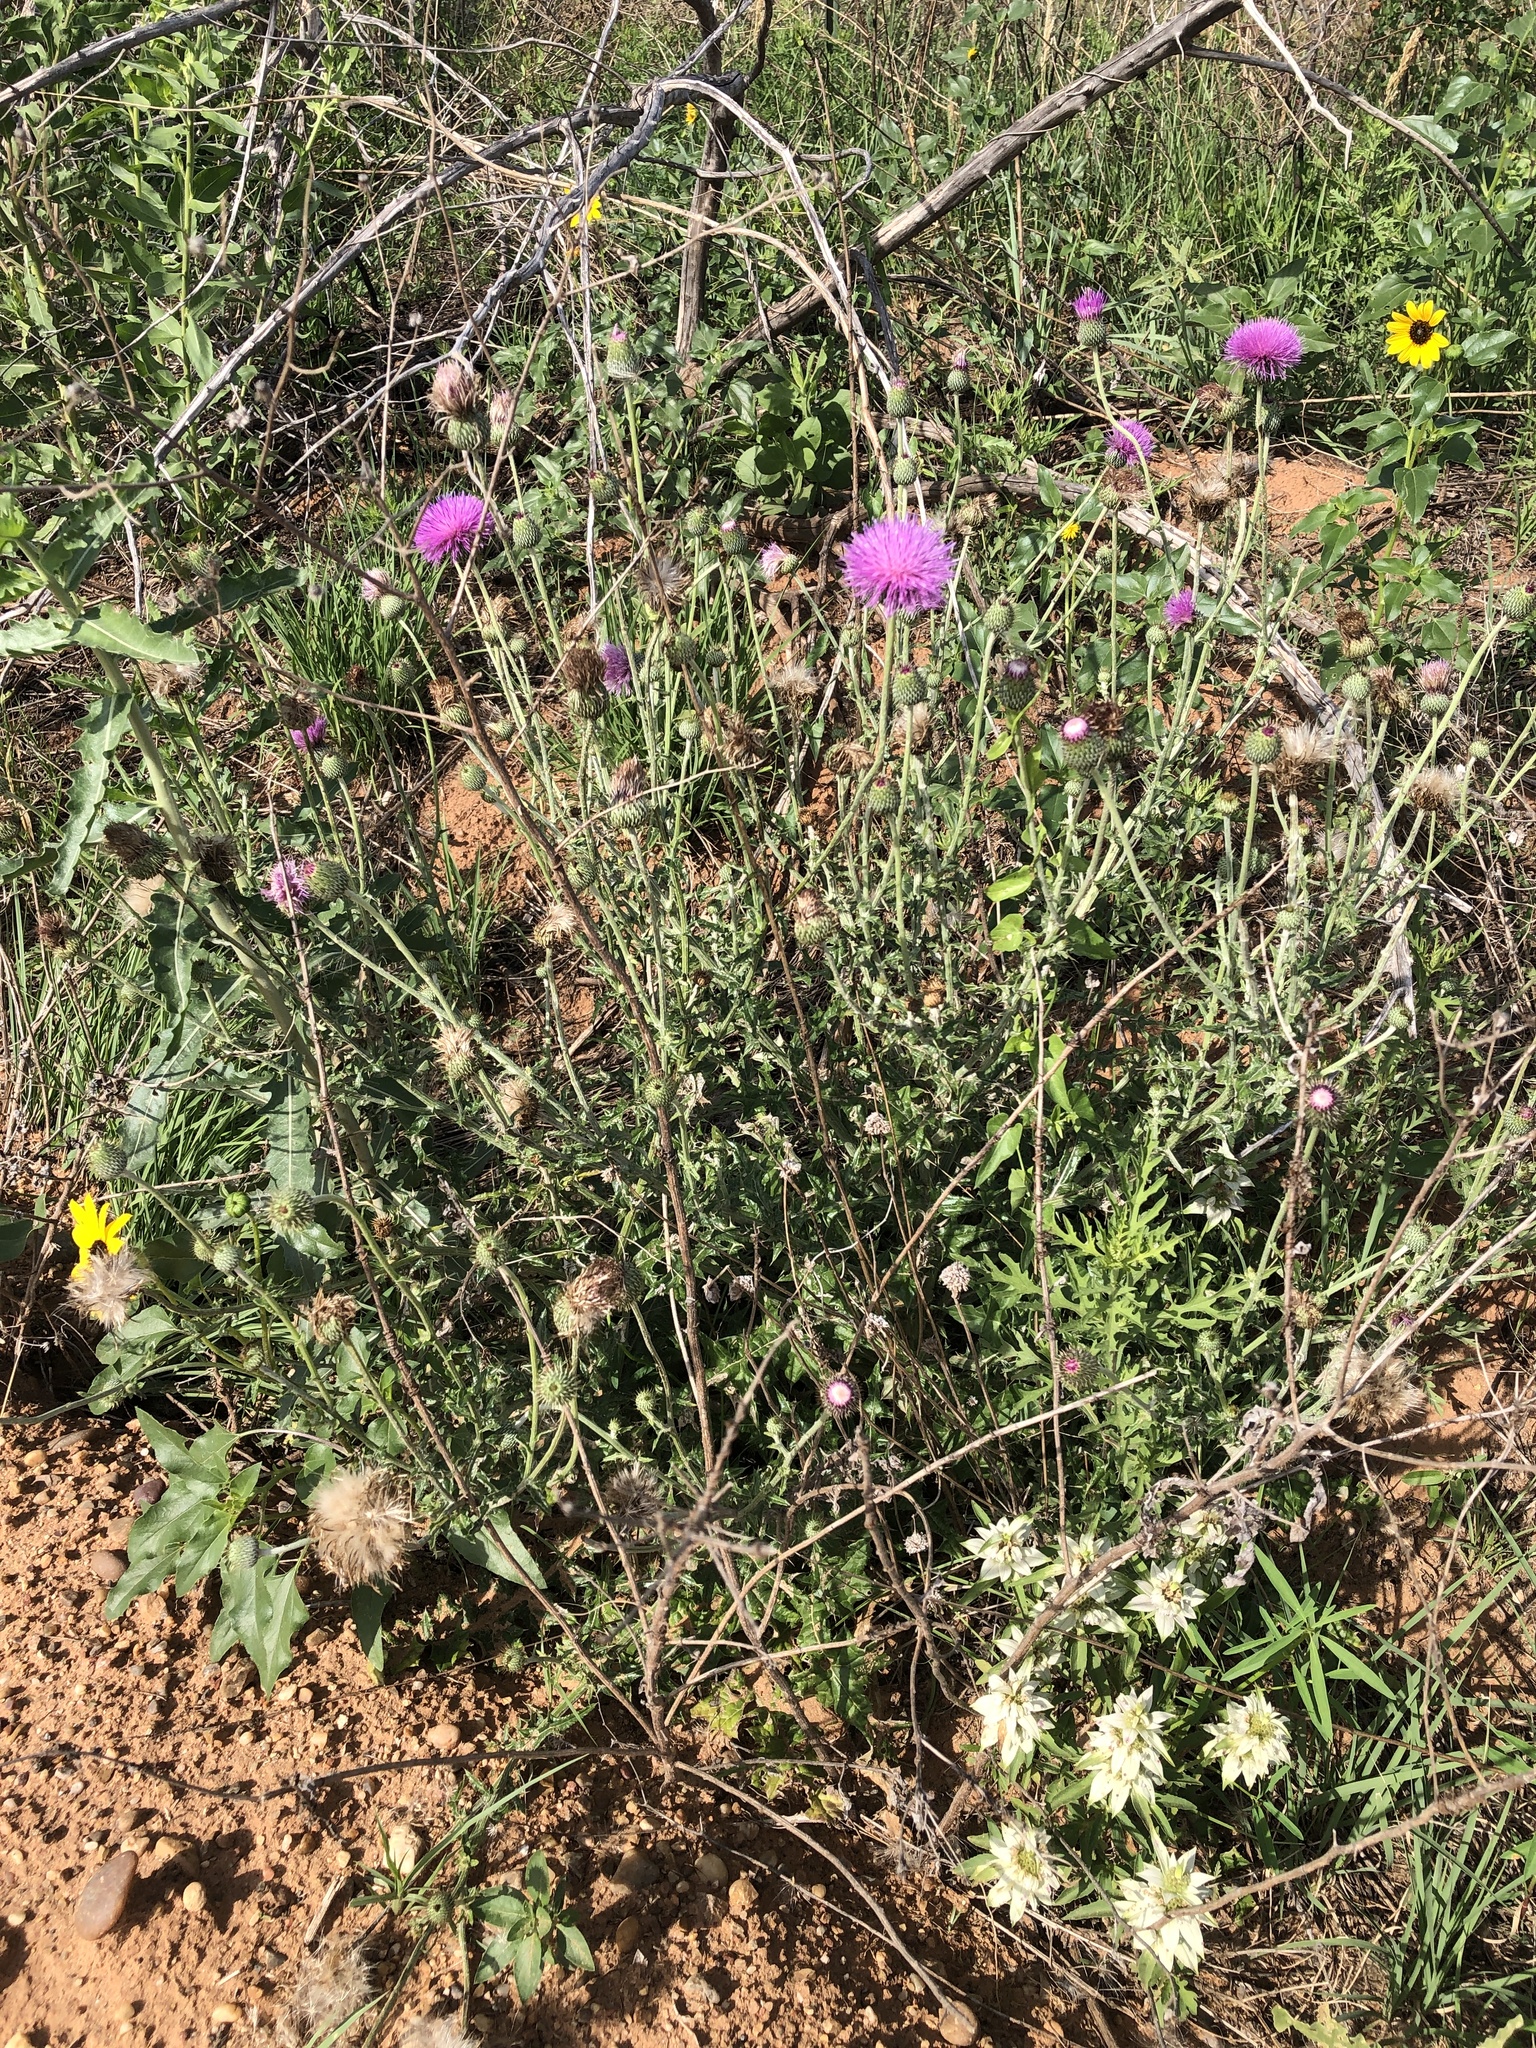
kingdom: Plantae
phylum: Tracheophyta
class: Magnoliopsida
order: Asterales
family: Asteraceae
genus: Cirsium
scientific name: Cirsium texanum
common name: Texas purple thistle
